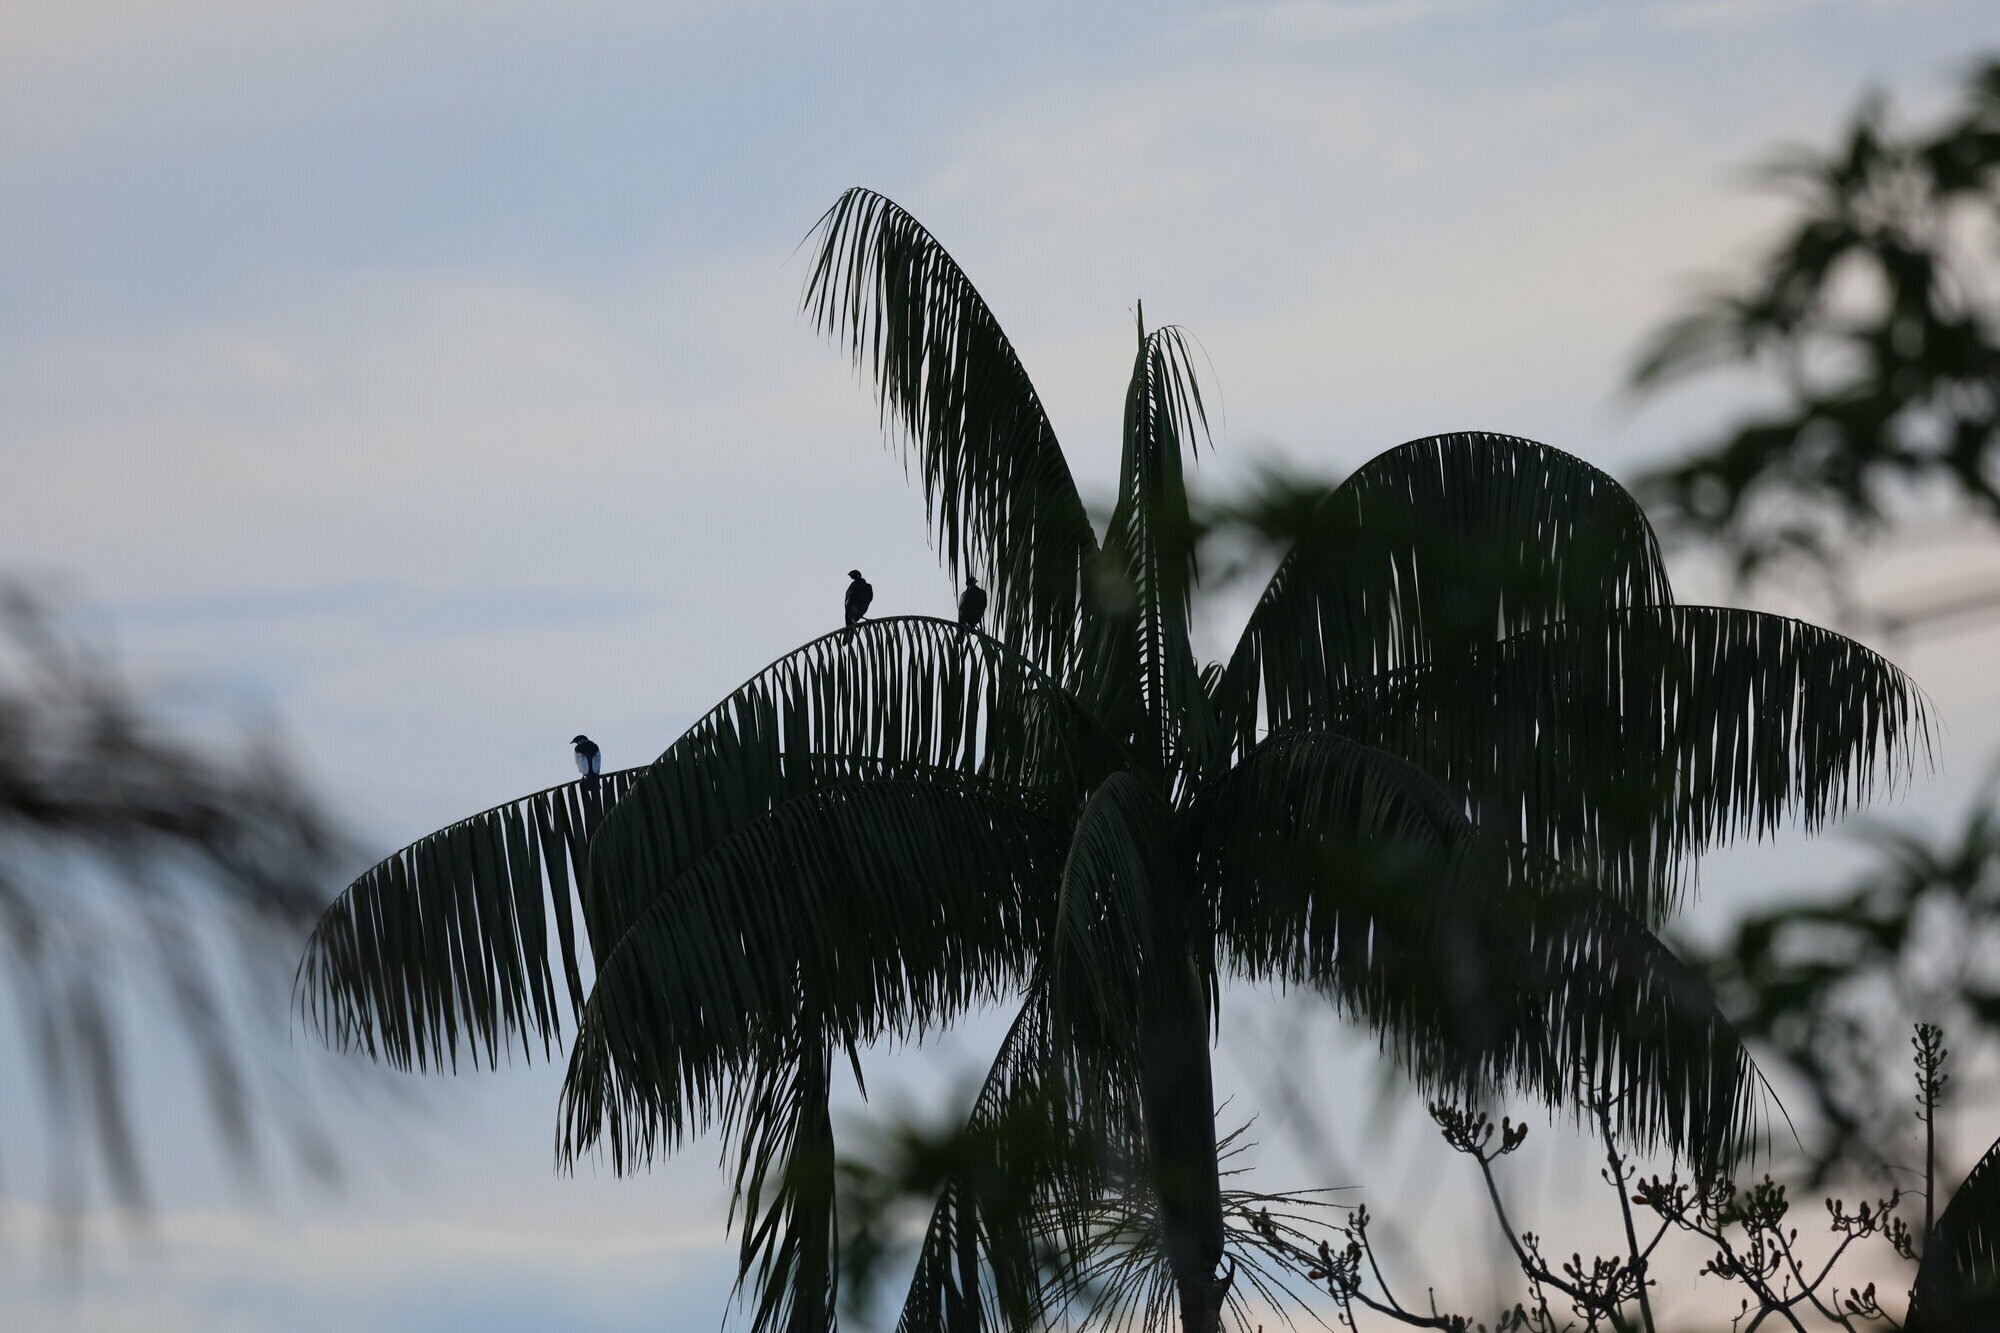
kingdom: Animalia
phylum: Chordata
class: Aves
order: Passeriformes
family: Cotingidae
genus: Gymnoderus
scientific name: Gymnoderus foetidus
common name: Bare-necked fruitcrow
